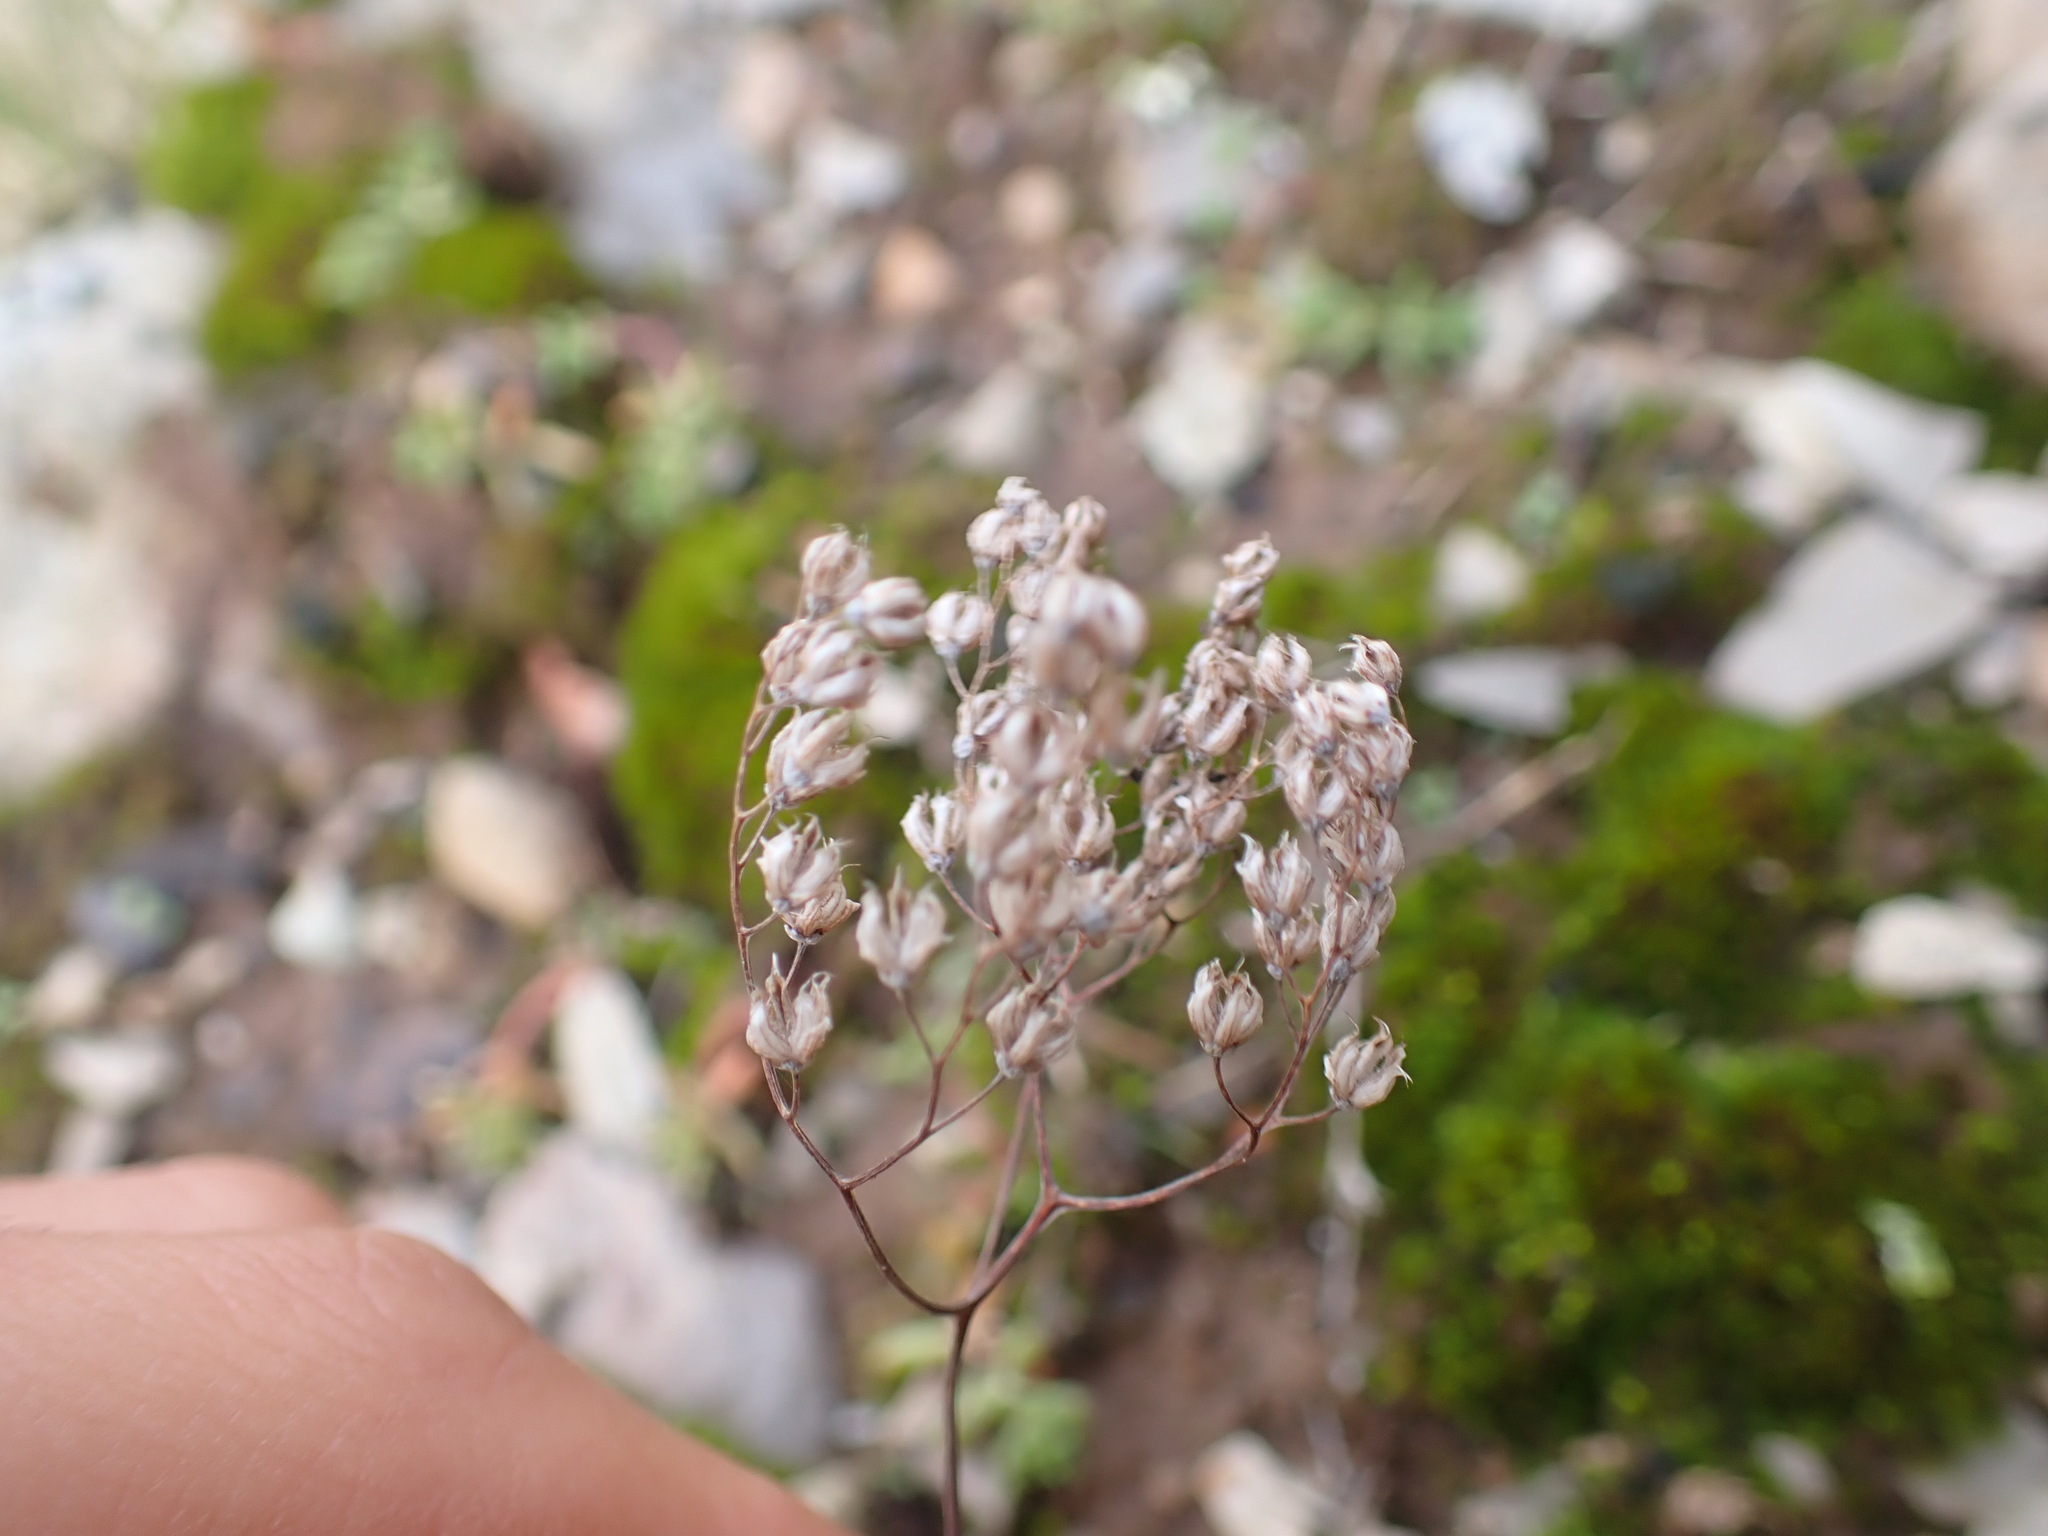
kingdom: Plantae
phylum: Tracheophyta
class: Magnoliopsida
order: Saxifragales
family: Crassulaceae
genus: Sedum
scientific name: Sedum album
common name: White stonecrop
